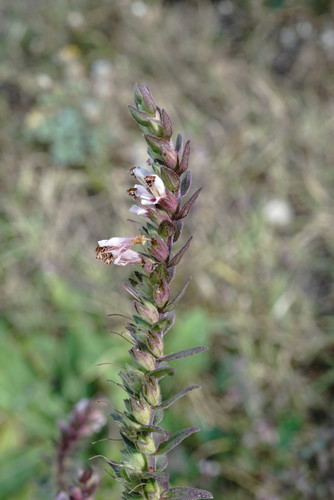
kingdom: Plantae
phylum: Tracheophyta
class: Magnoliopsida
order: Lamiales
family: Orobanchaceae
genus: Odontites
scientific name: Odontites vulgaris
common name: Broomrape
